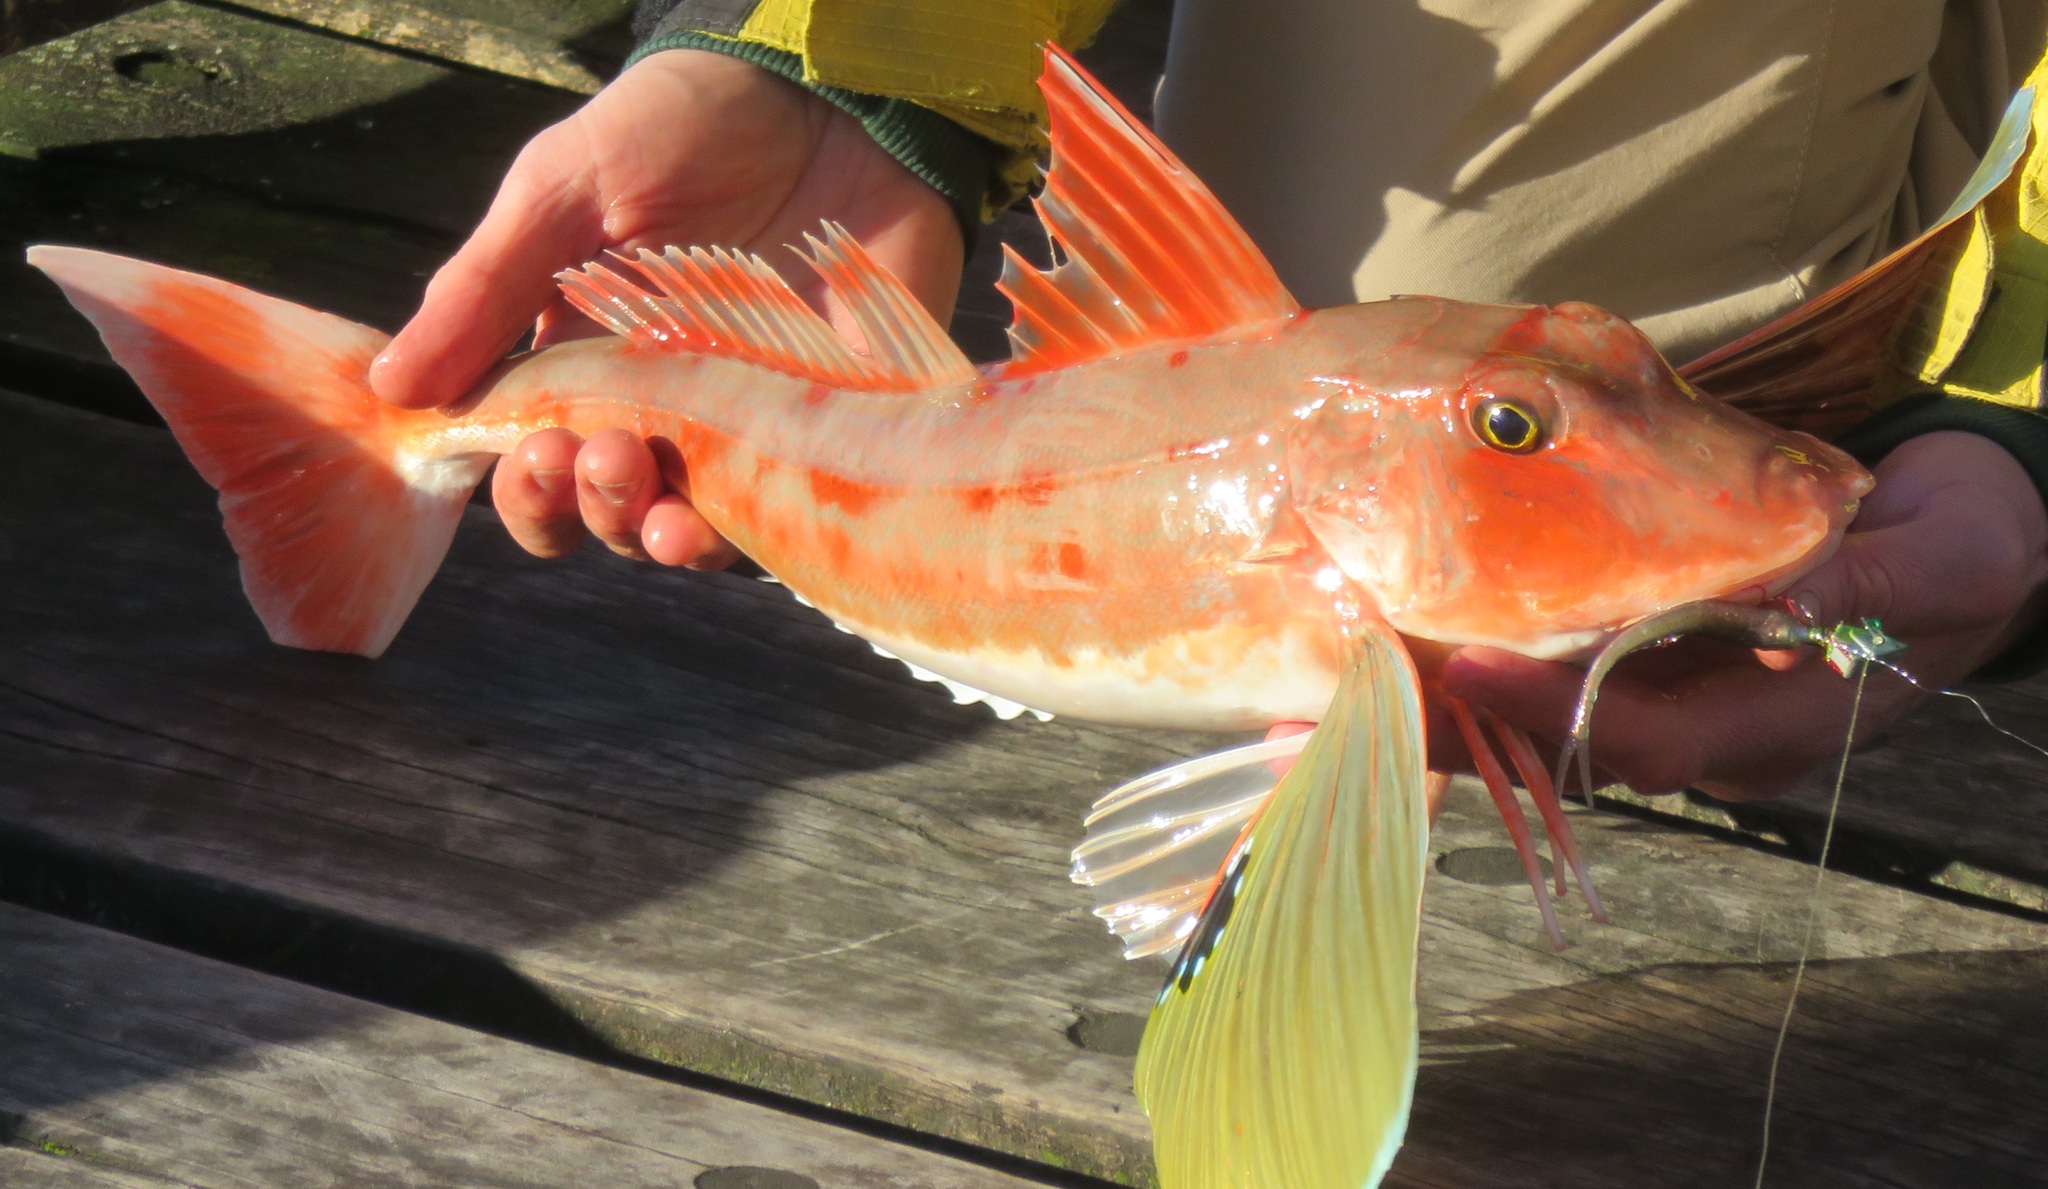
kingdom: Animalia
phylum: Chordata
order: Scorpaeniformes
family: Triglidae
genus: Chelidonichthys
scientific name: Chelidonichthys kumu
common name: Bluefin gurnard
